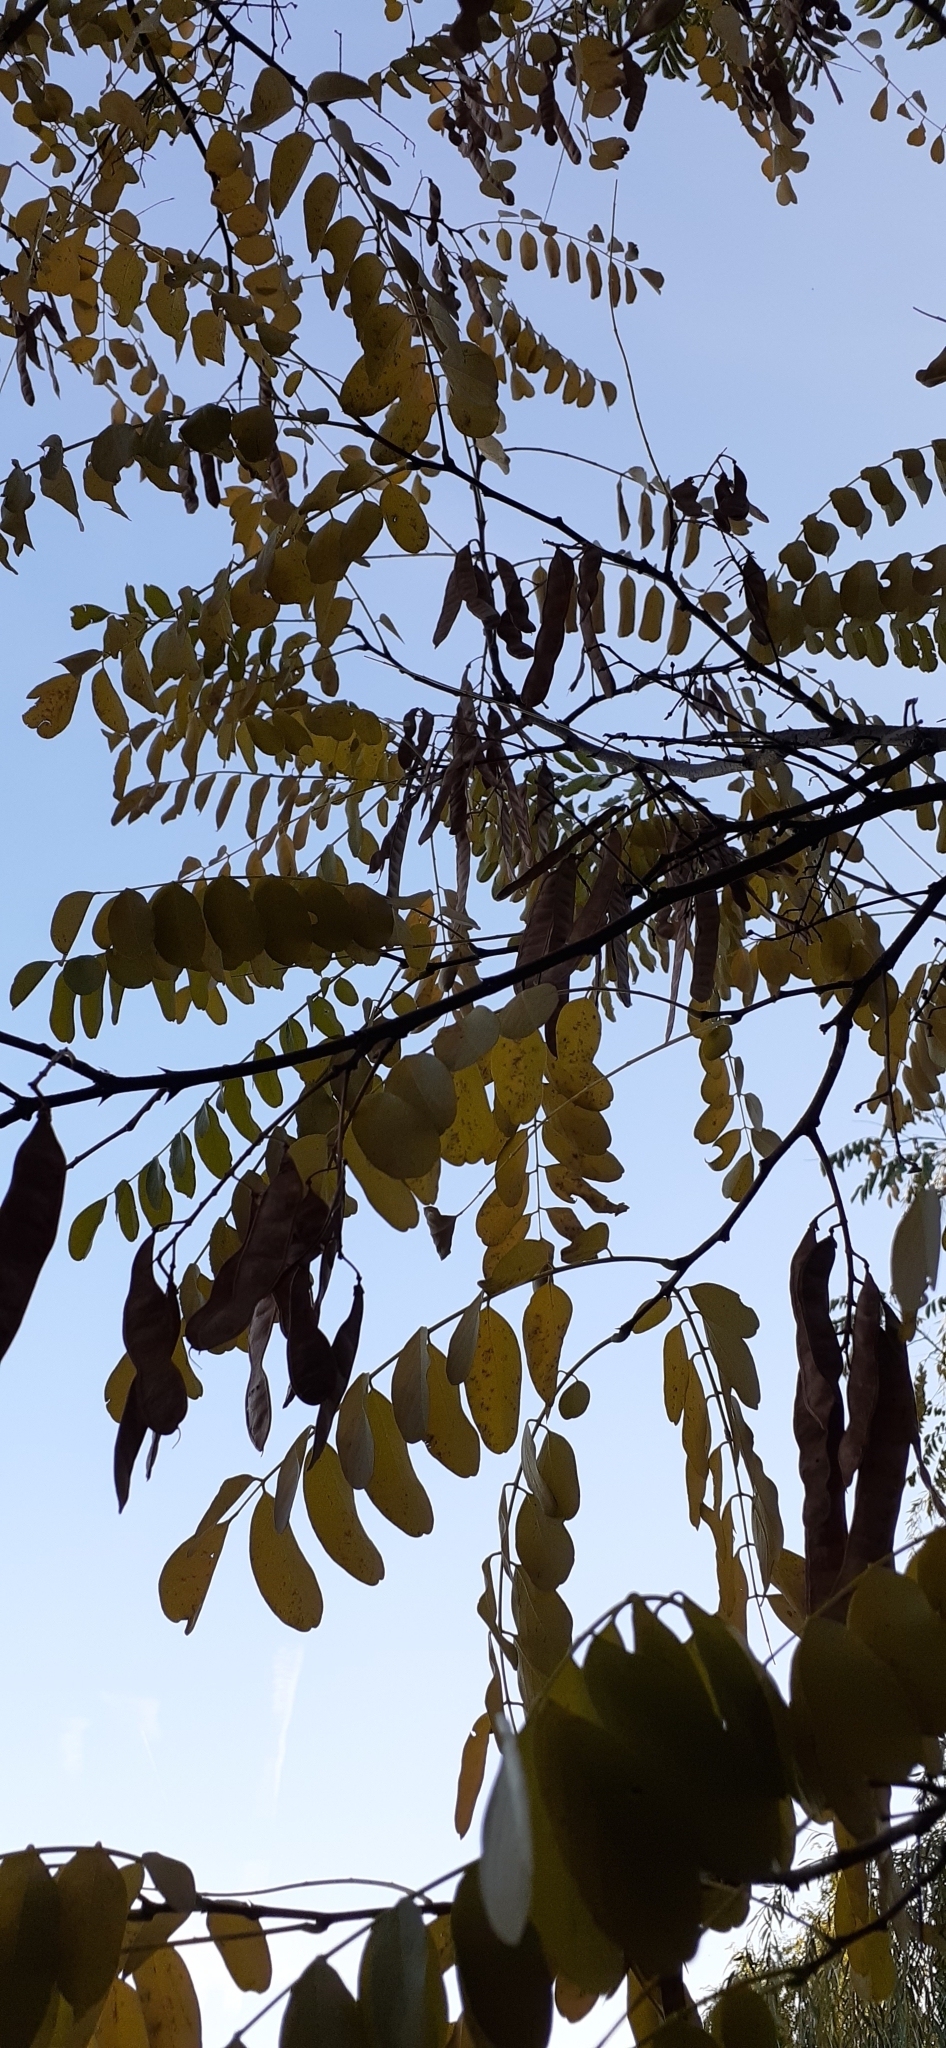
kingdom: Plantae
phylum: Tracheophyta
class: Magnoliopsida
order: Fabales
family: Fabaceae
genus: Robinia
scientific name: Robinia pseudoacacia
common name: Black locust
